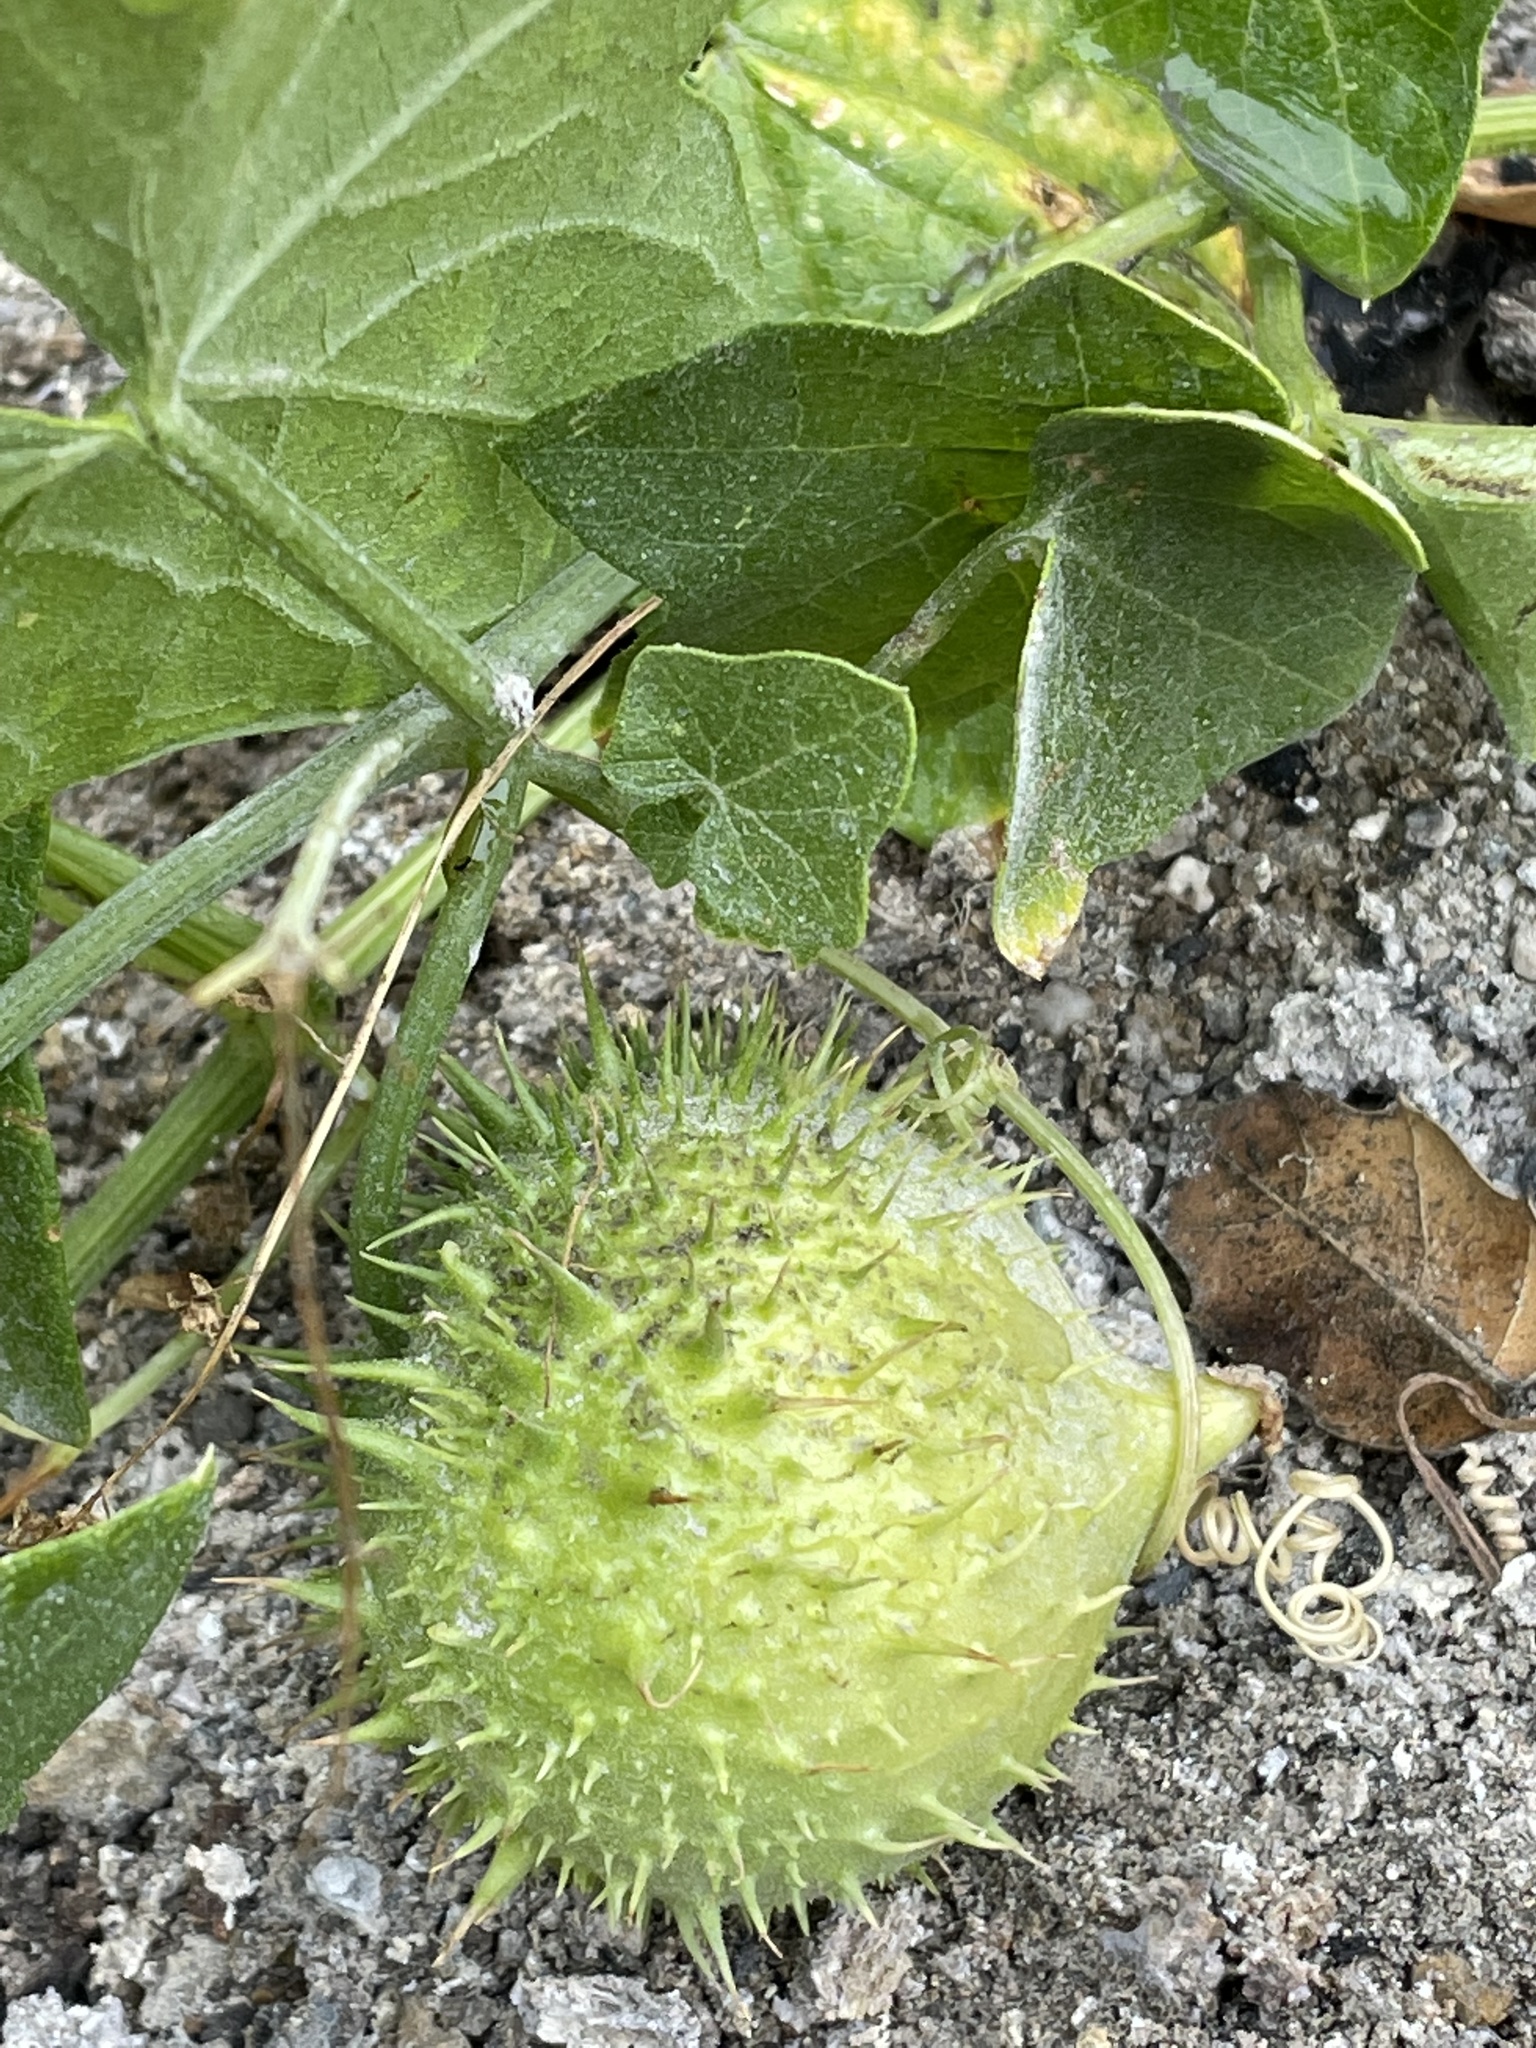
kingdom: Plantae
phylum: Tracheophyta
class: Magnoliopsida
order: Cucurbitales
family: Cucurbitaceae
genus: Marah
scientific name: Marah fabacea
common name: California manroot
